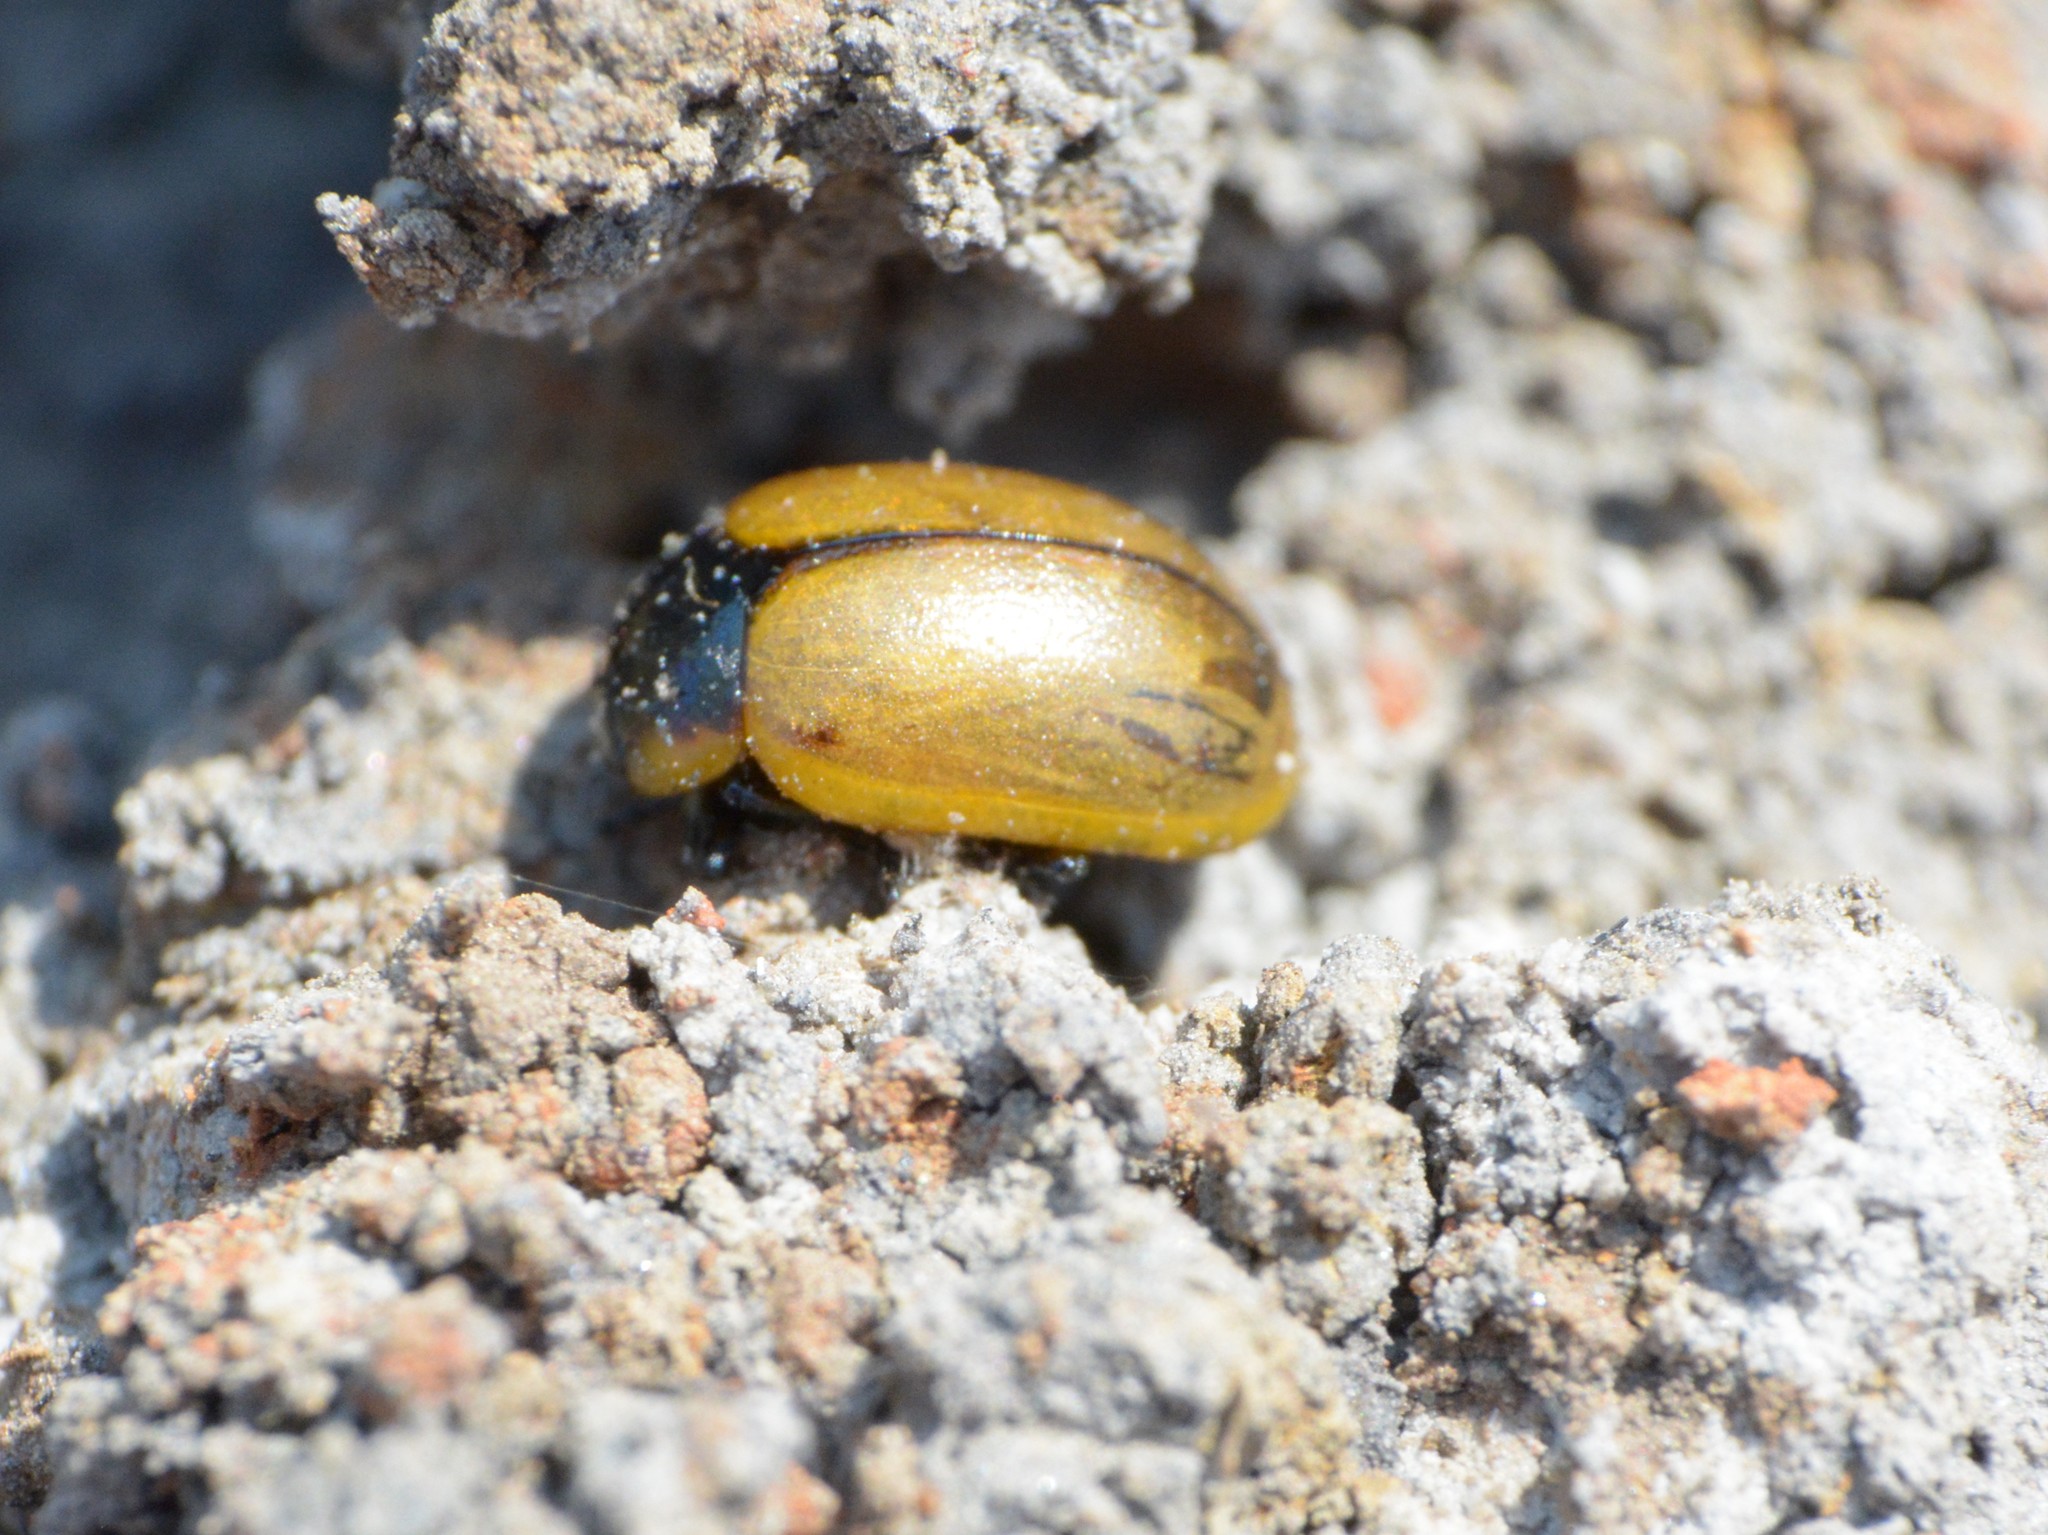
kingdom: Animalia
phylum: Arthropoda
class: Insecta
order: Coleoptera
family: Chrysomelidae
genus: Mesoplatys
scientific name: Mesoplatys
